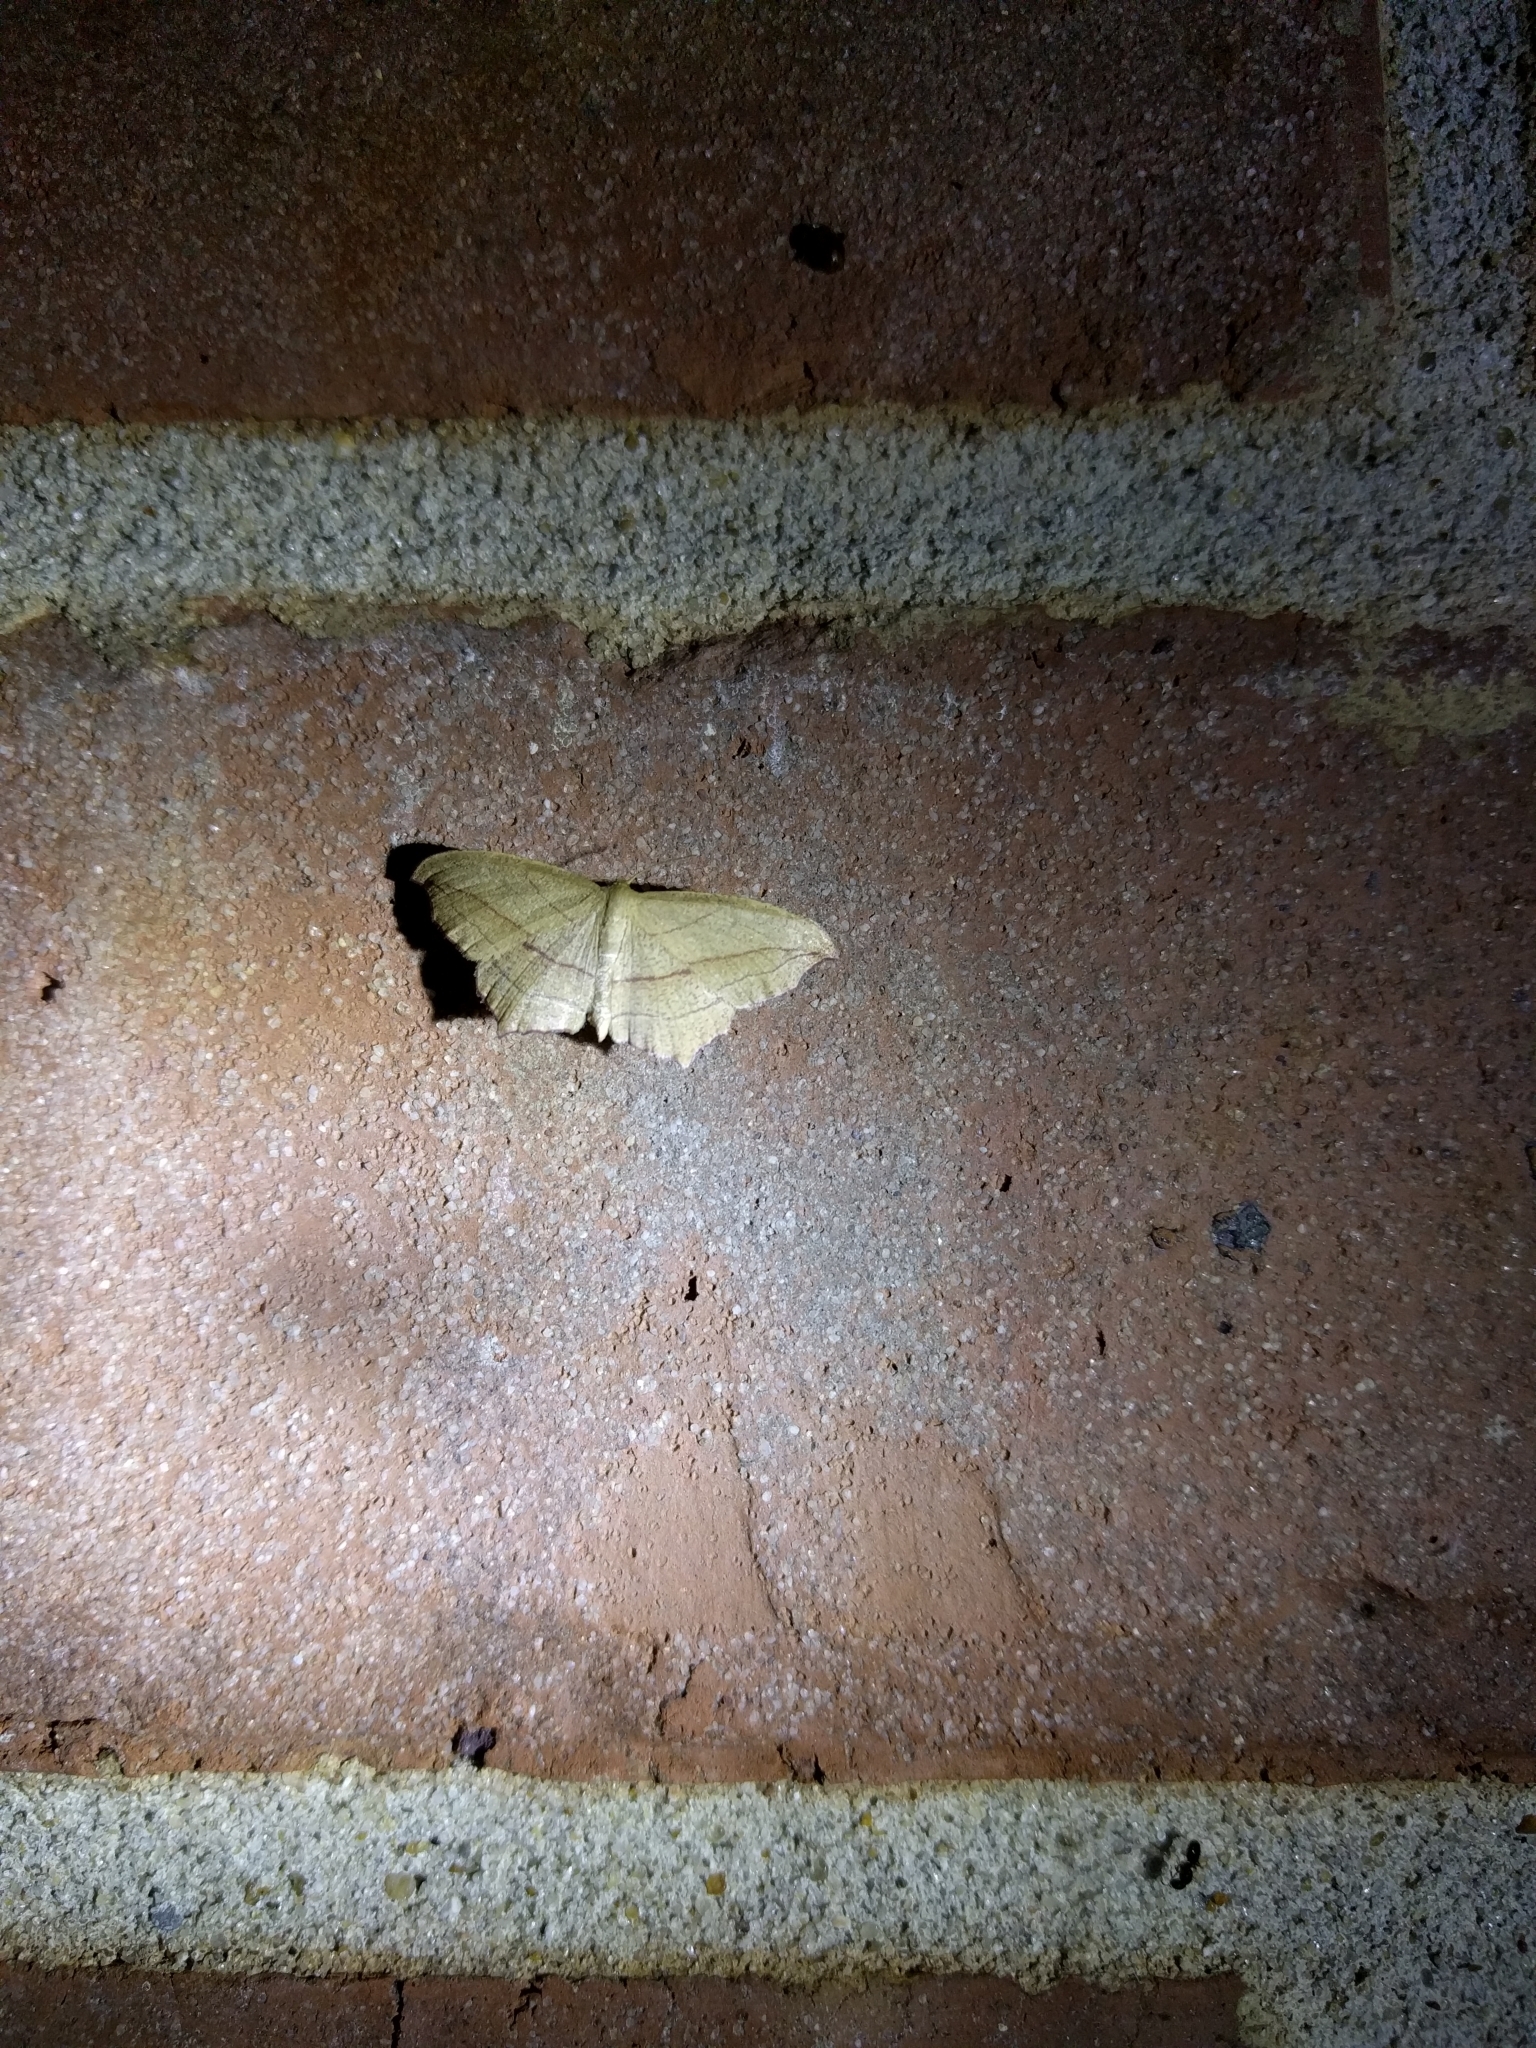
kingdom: Animalia
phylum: Arthropoda
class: Insecta
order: Lepidoptera
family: Geometridae
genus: Timandra
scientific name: Timandra amaturaria
